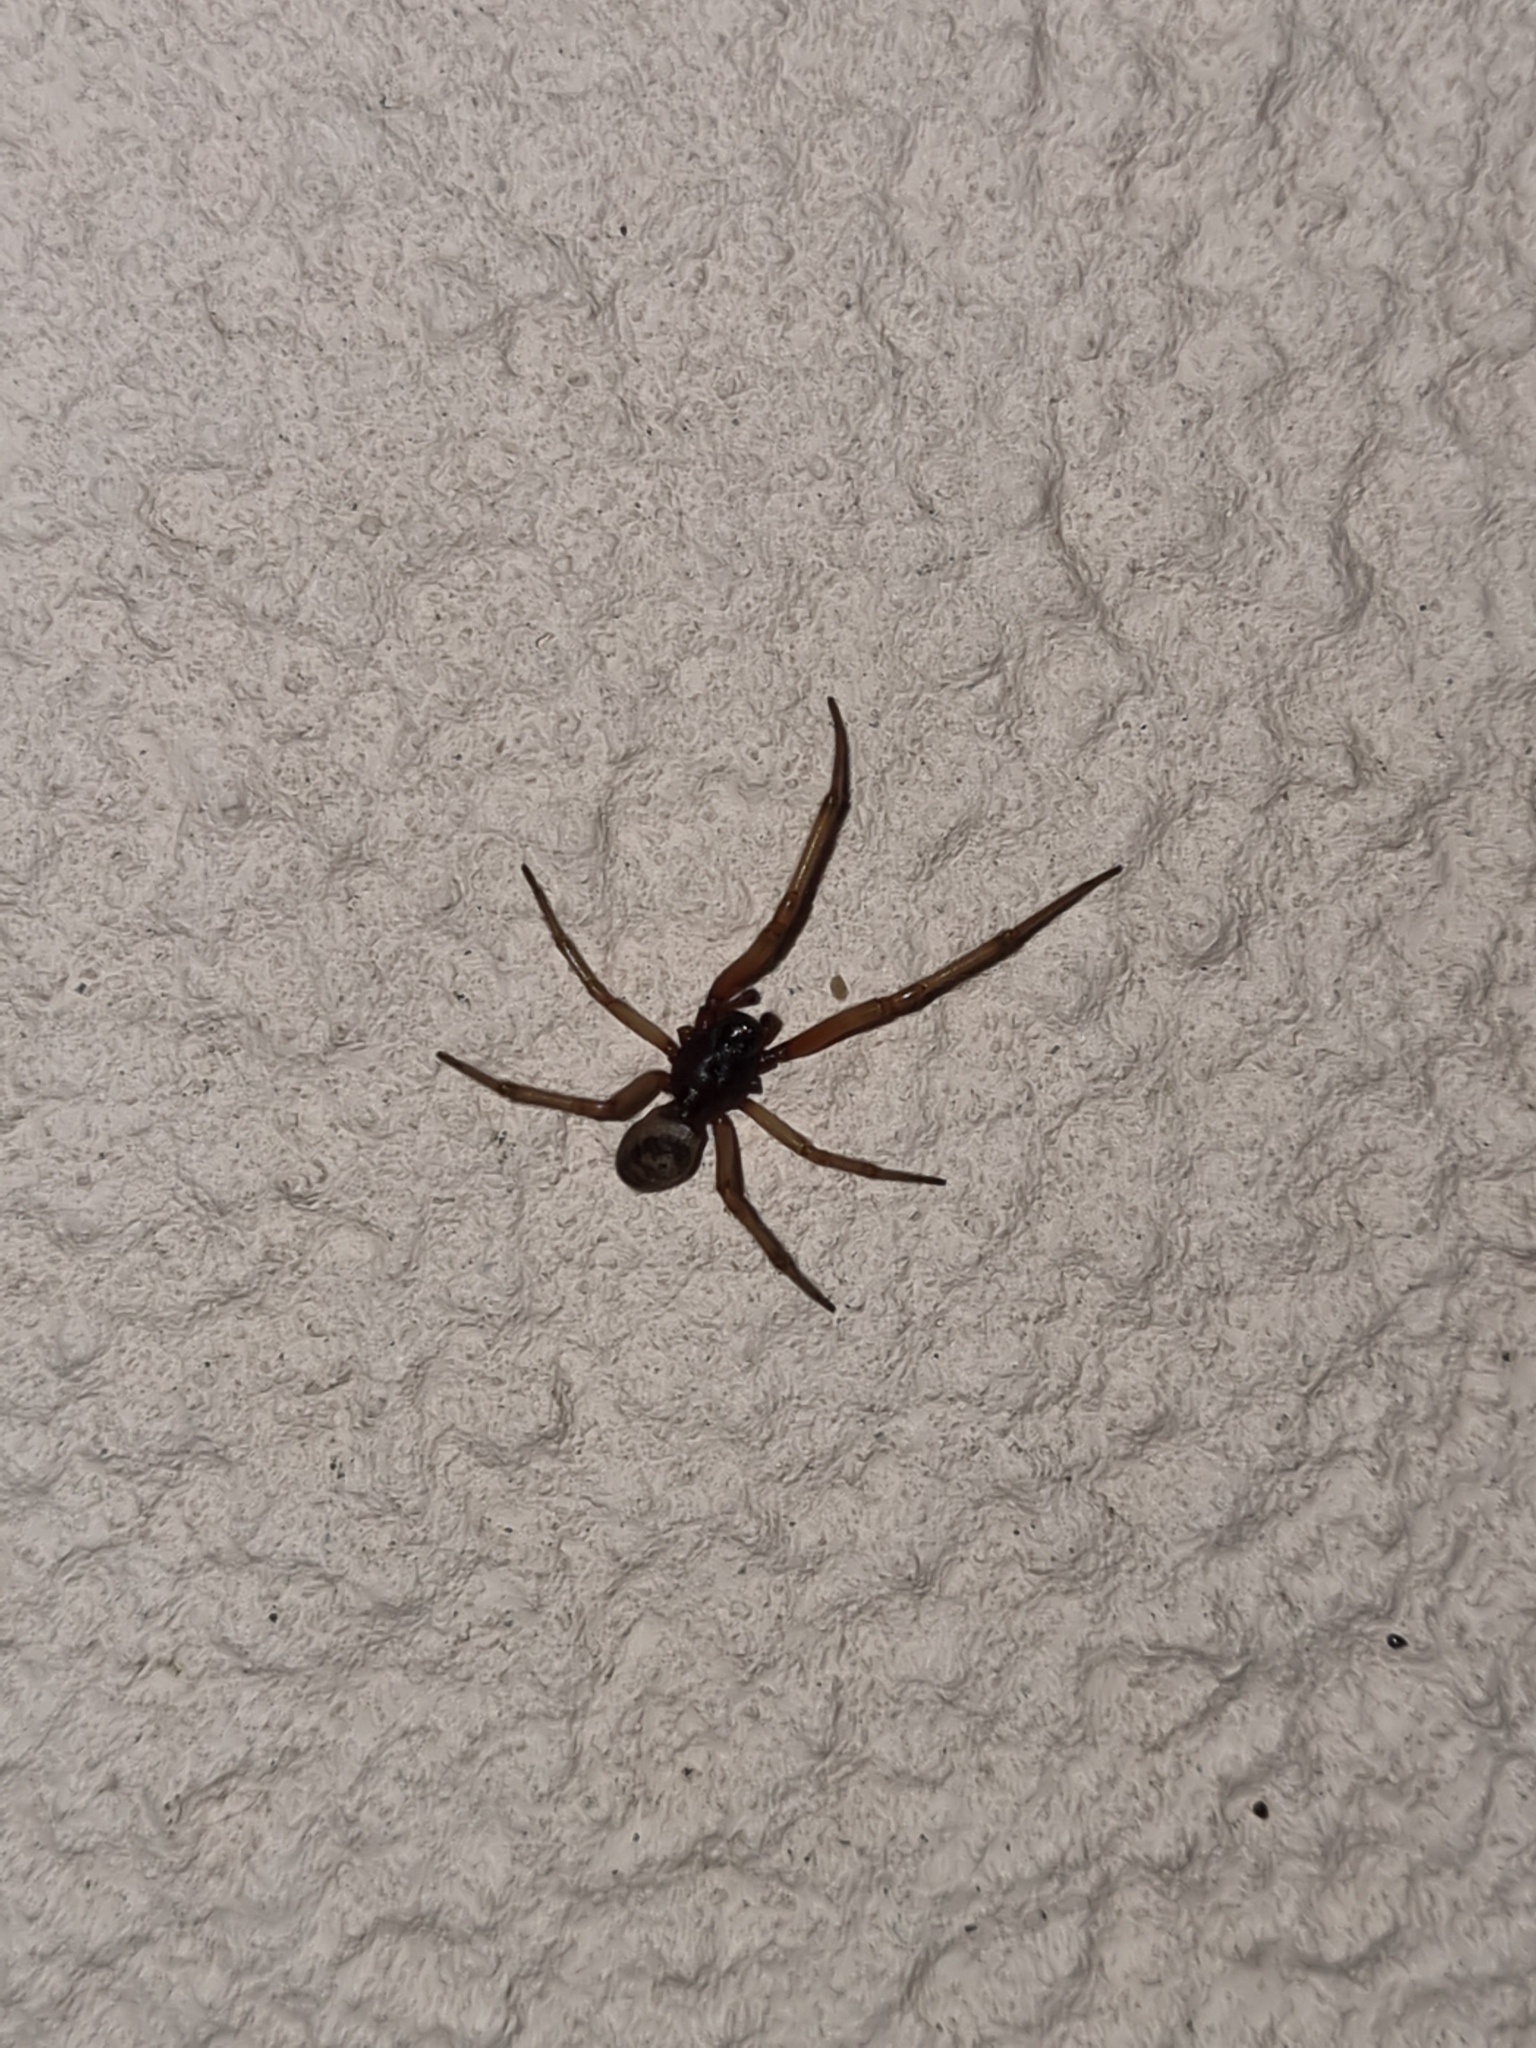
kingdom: Animalia
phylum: Arthropoda
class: Arachnida
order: Araneae
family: Theridiidae
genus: Steatoda
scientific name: Steatoda nobilis
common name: Cobweb weaver
